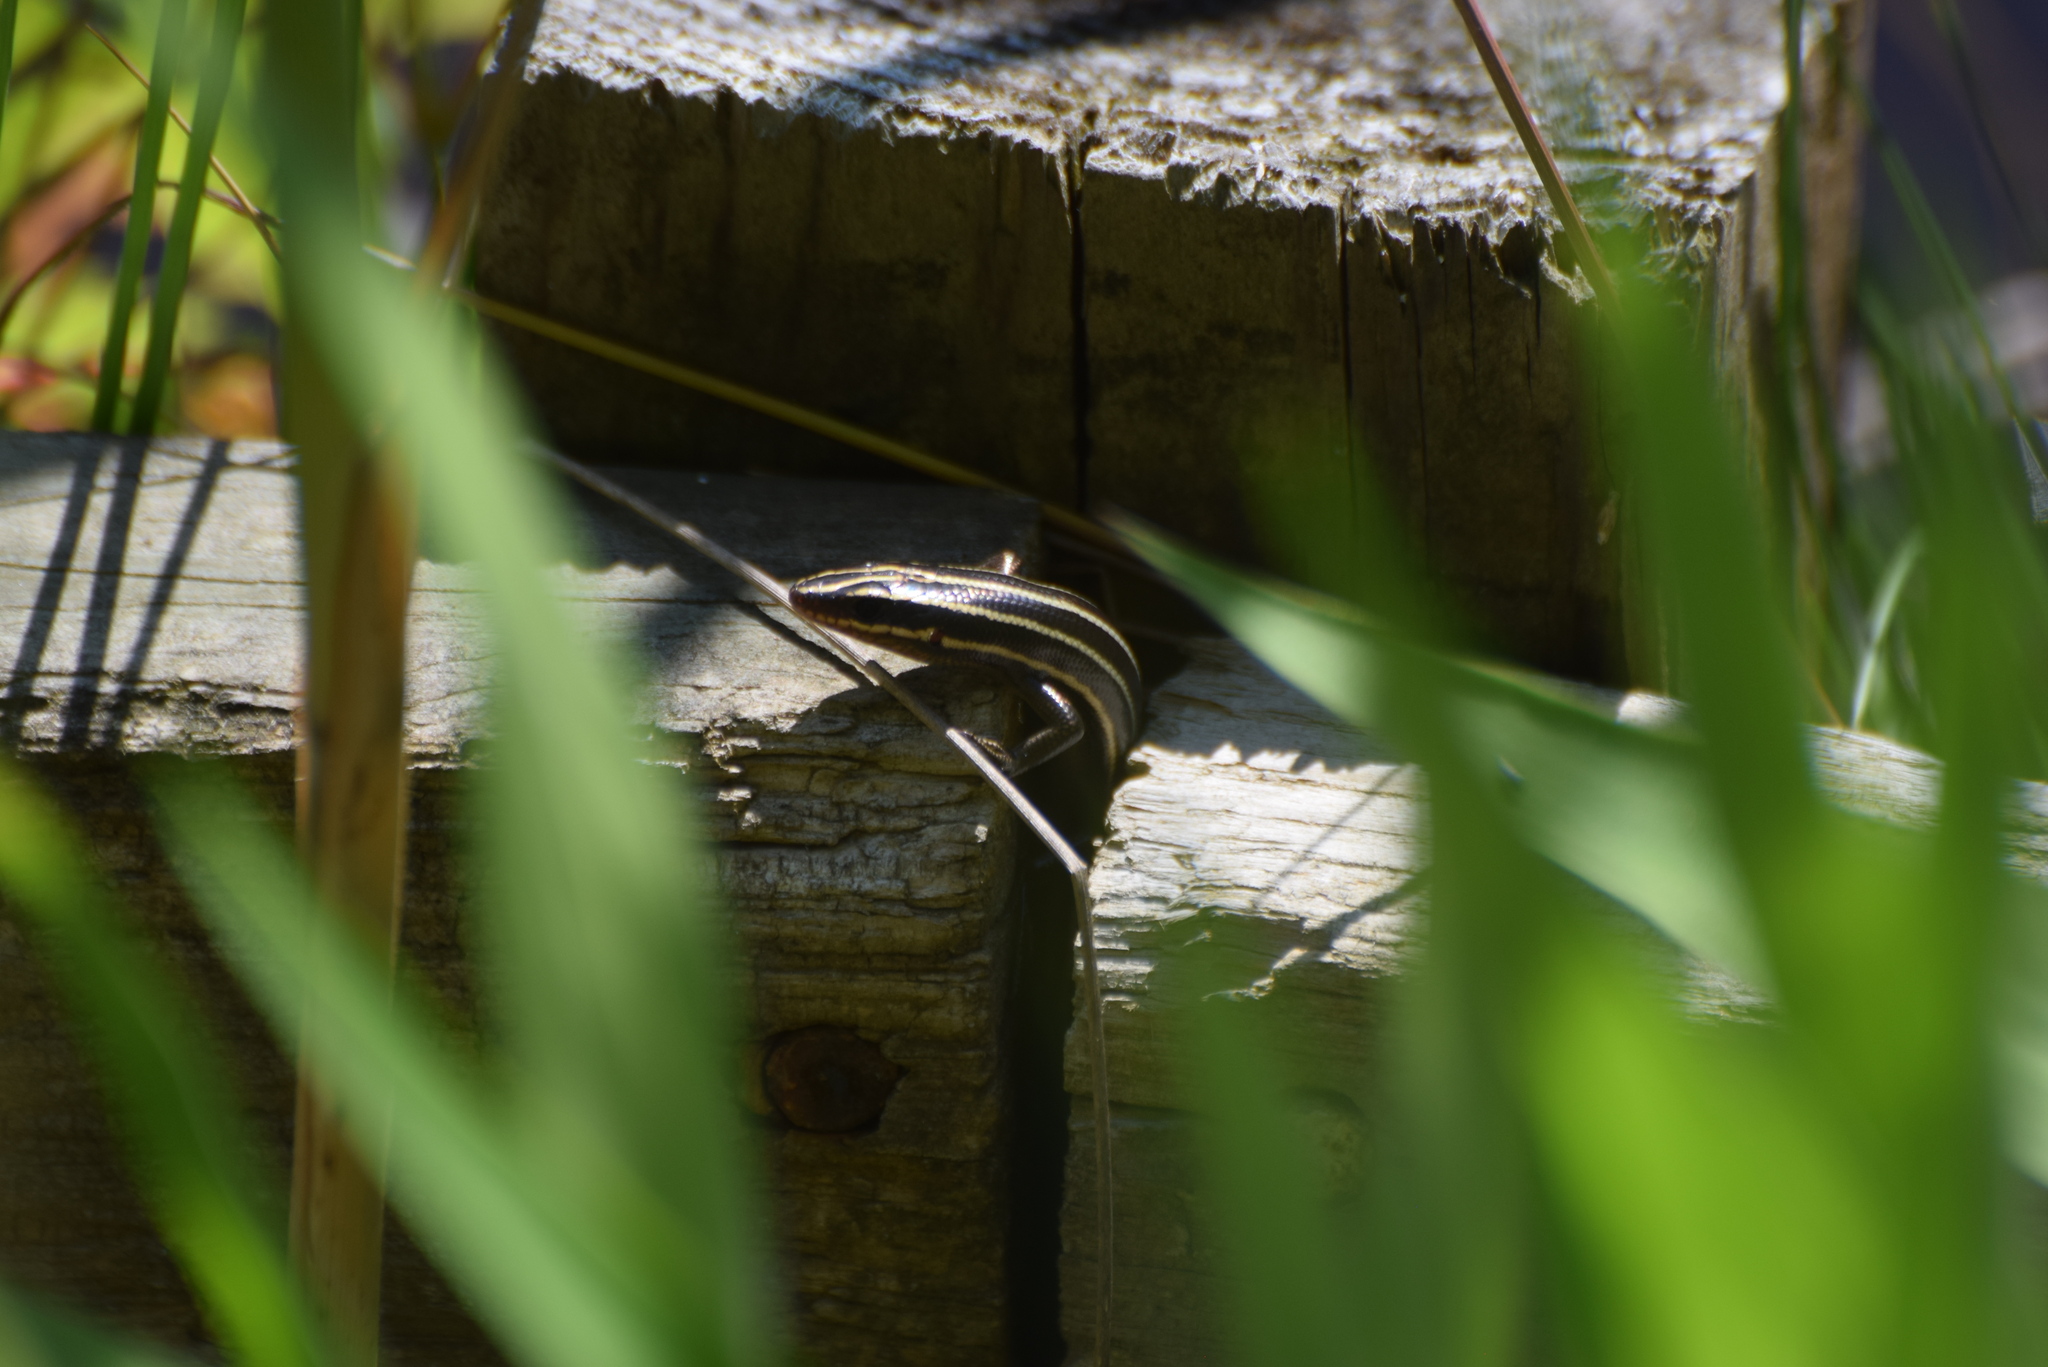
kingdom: Animalia
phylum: Chordata
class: Squamata
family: Scincidae
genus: Plestiodon
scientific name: Plestiodon fasciatus
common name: Five-lined skink
